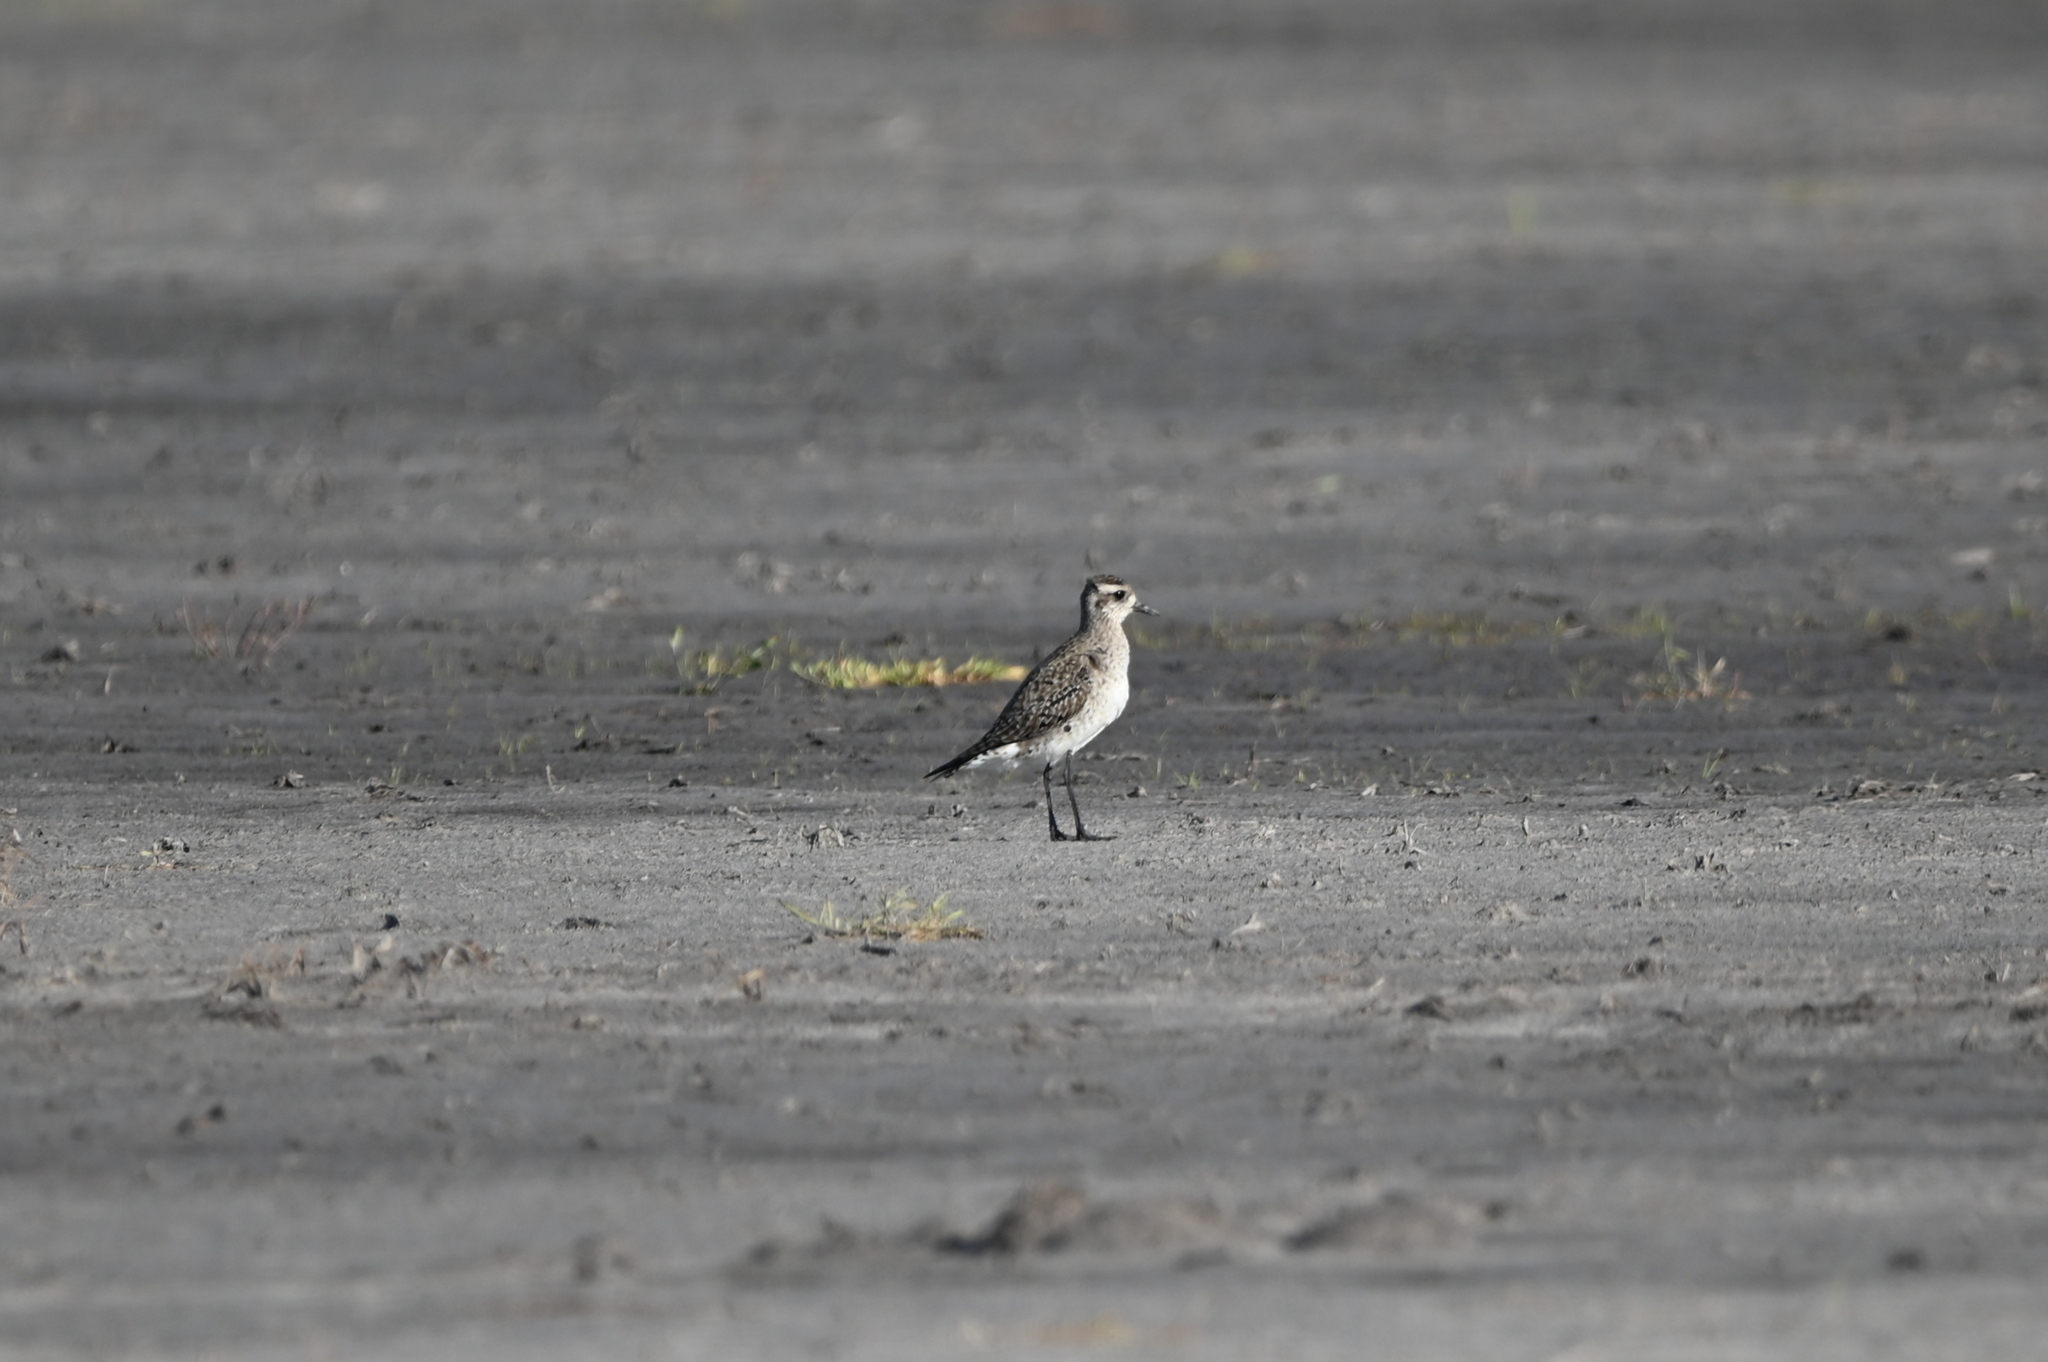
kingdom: Animalia
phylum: Chordata
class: Aves
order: Charadriiformes
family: Charadriidae
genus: Pluvialis
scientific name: Pluvialis dominica
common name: American golden plover
